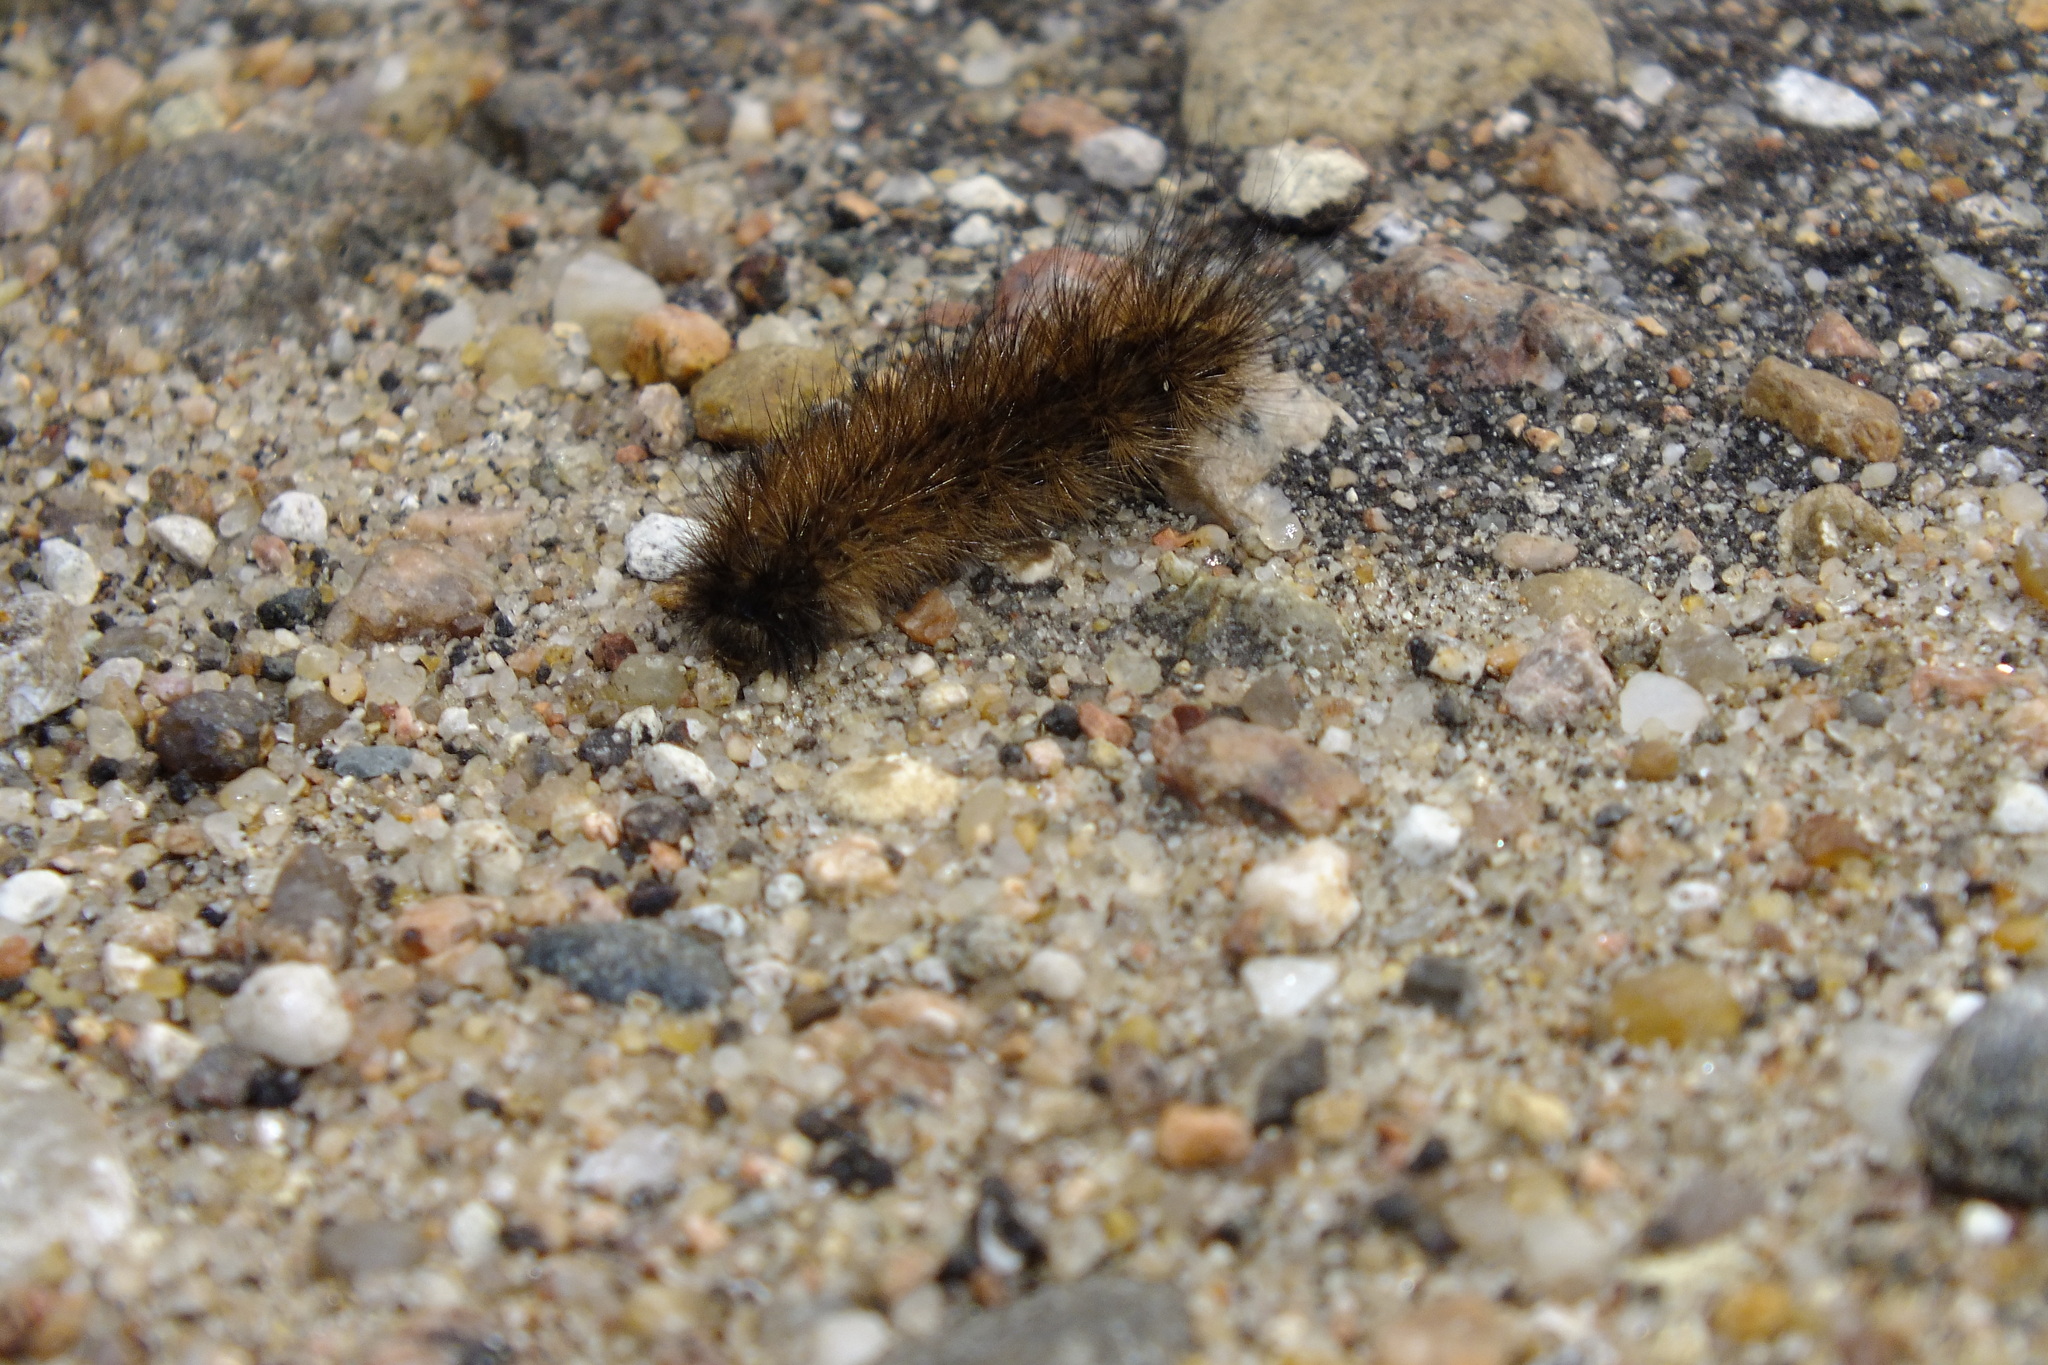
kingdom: Animalia
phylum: Arthropoda
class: Insecta
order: Lepidoptera
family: Erebidae
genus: Phragmatobia
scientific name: Phragmatobia fuliginosa
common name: Ruby tiger
